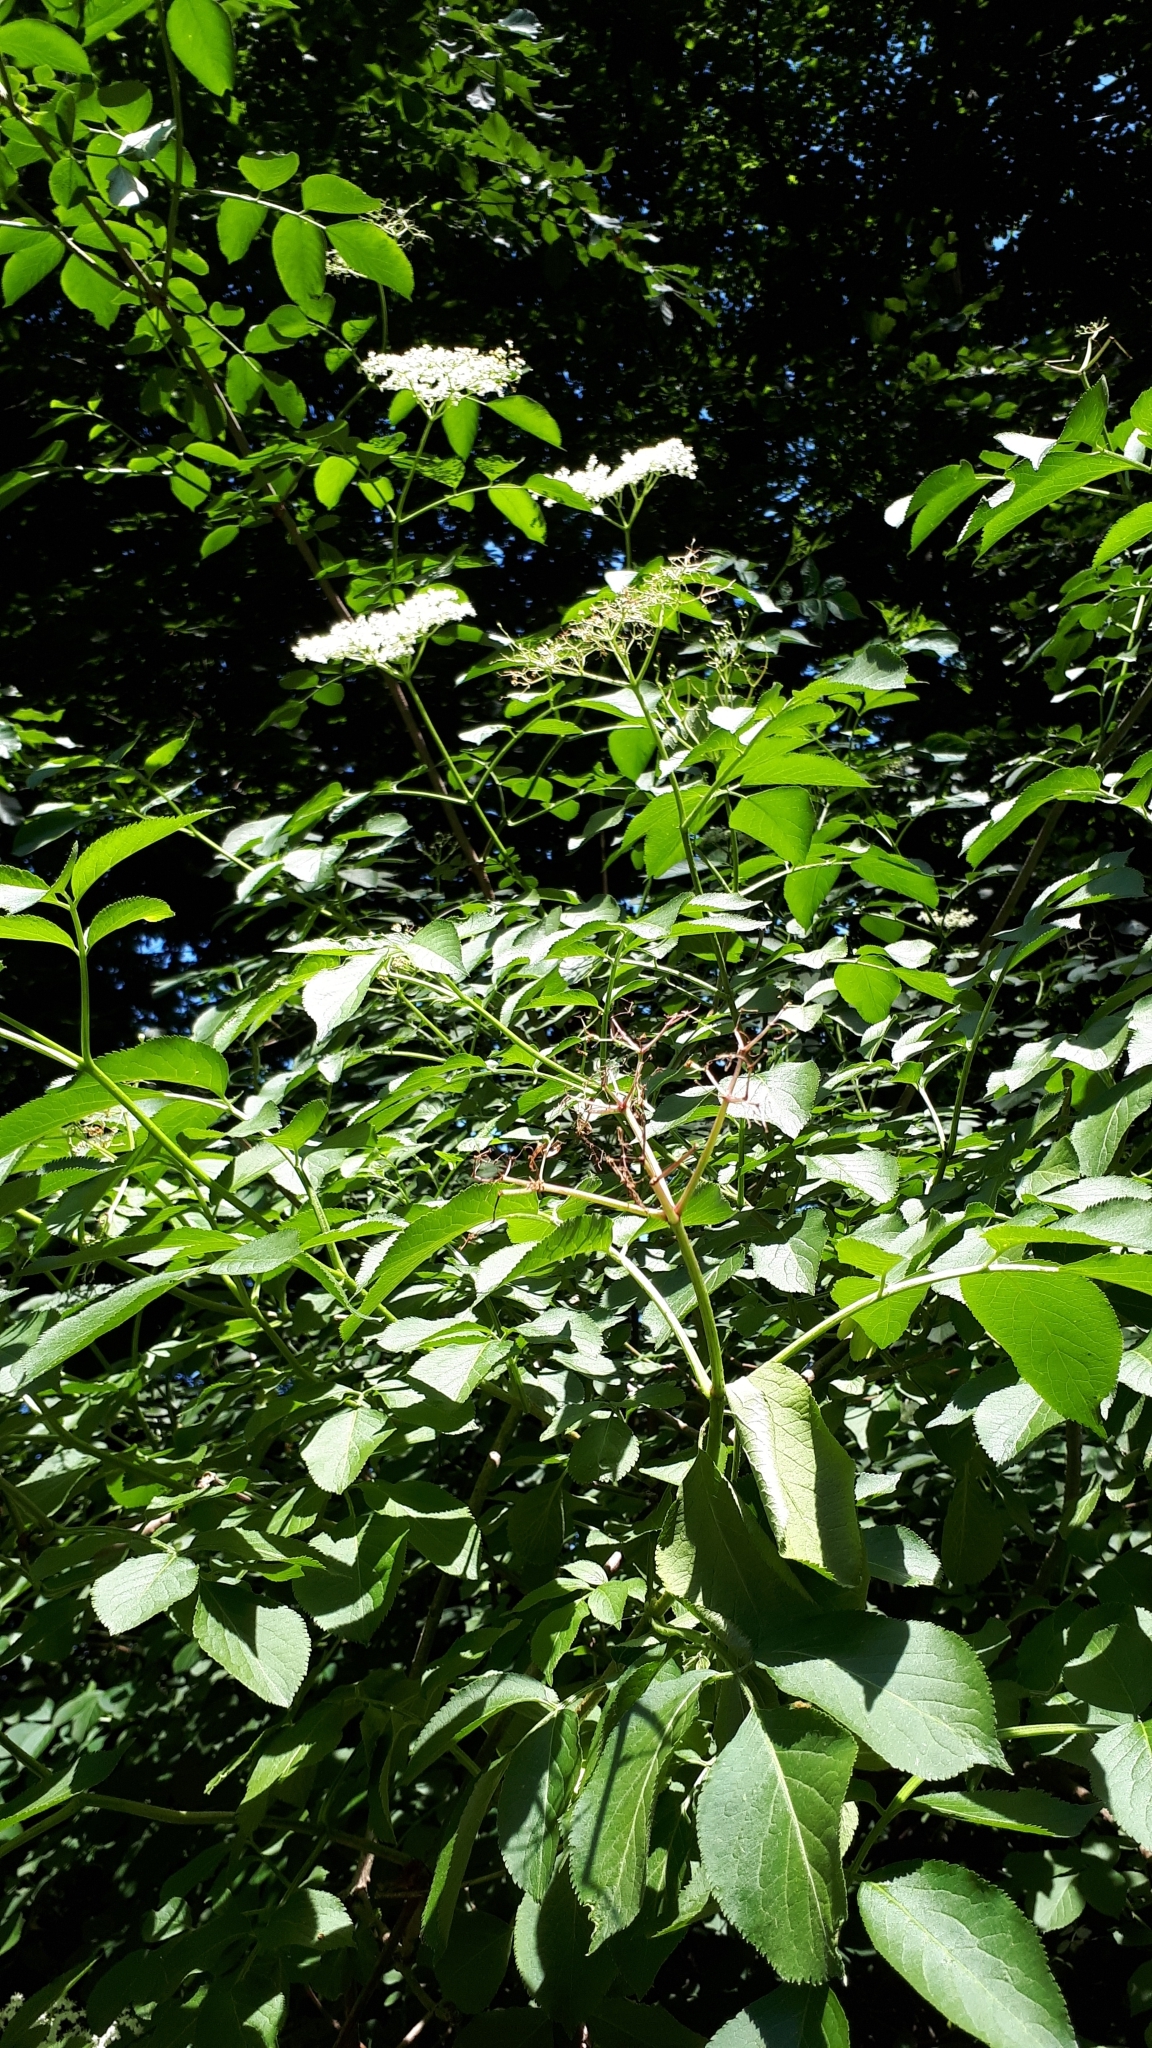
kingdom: Plantae
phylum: Tracheophyta
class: Magnoliopsida
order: Dipsacales
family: Viburnaceae
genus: Sambucus
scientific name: Sambucus nigra
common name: Elder
